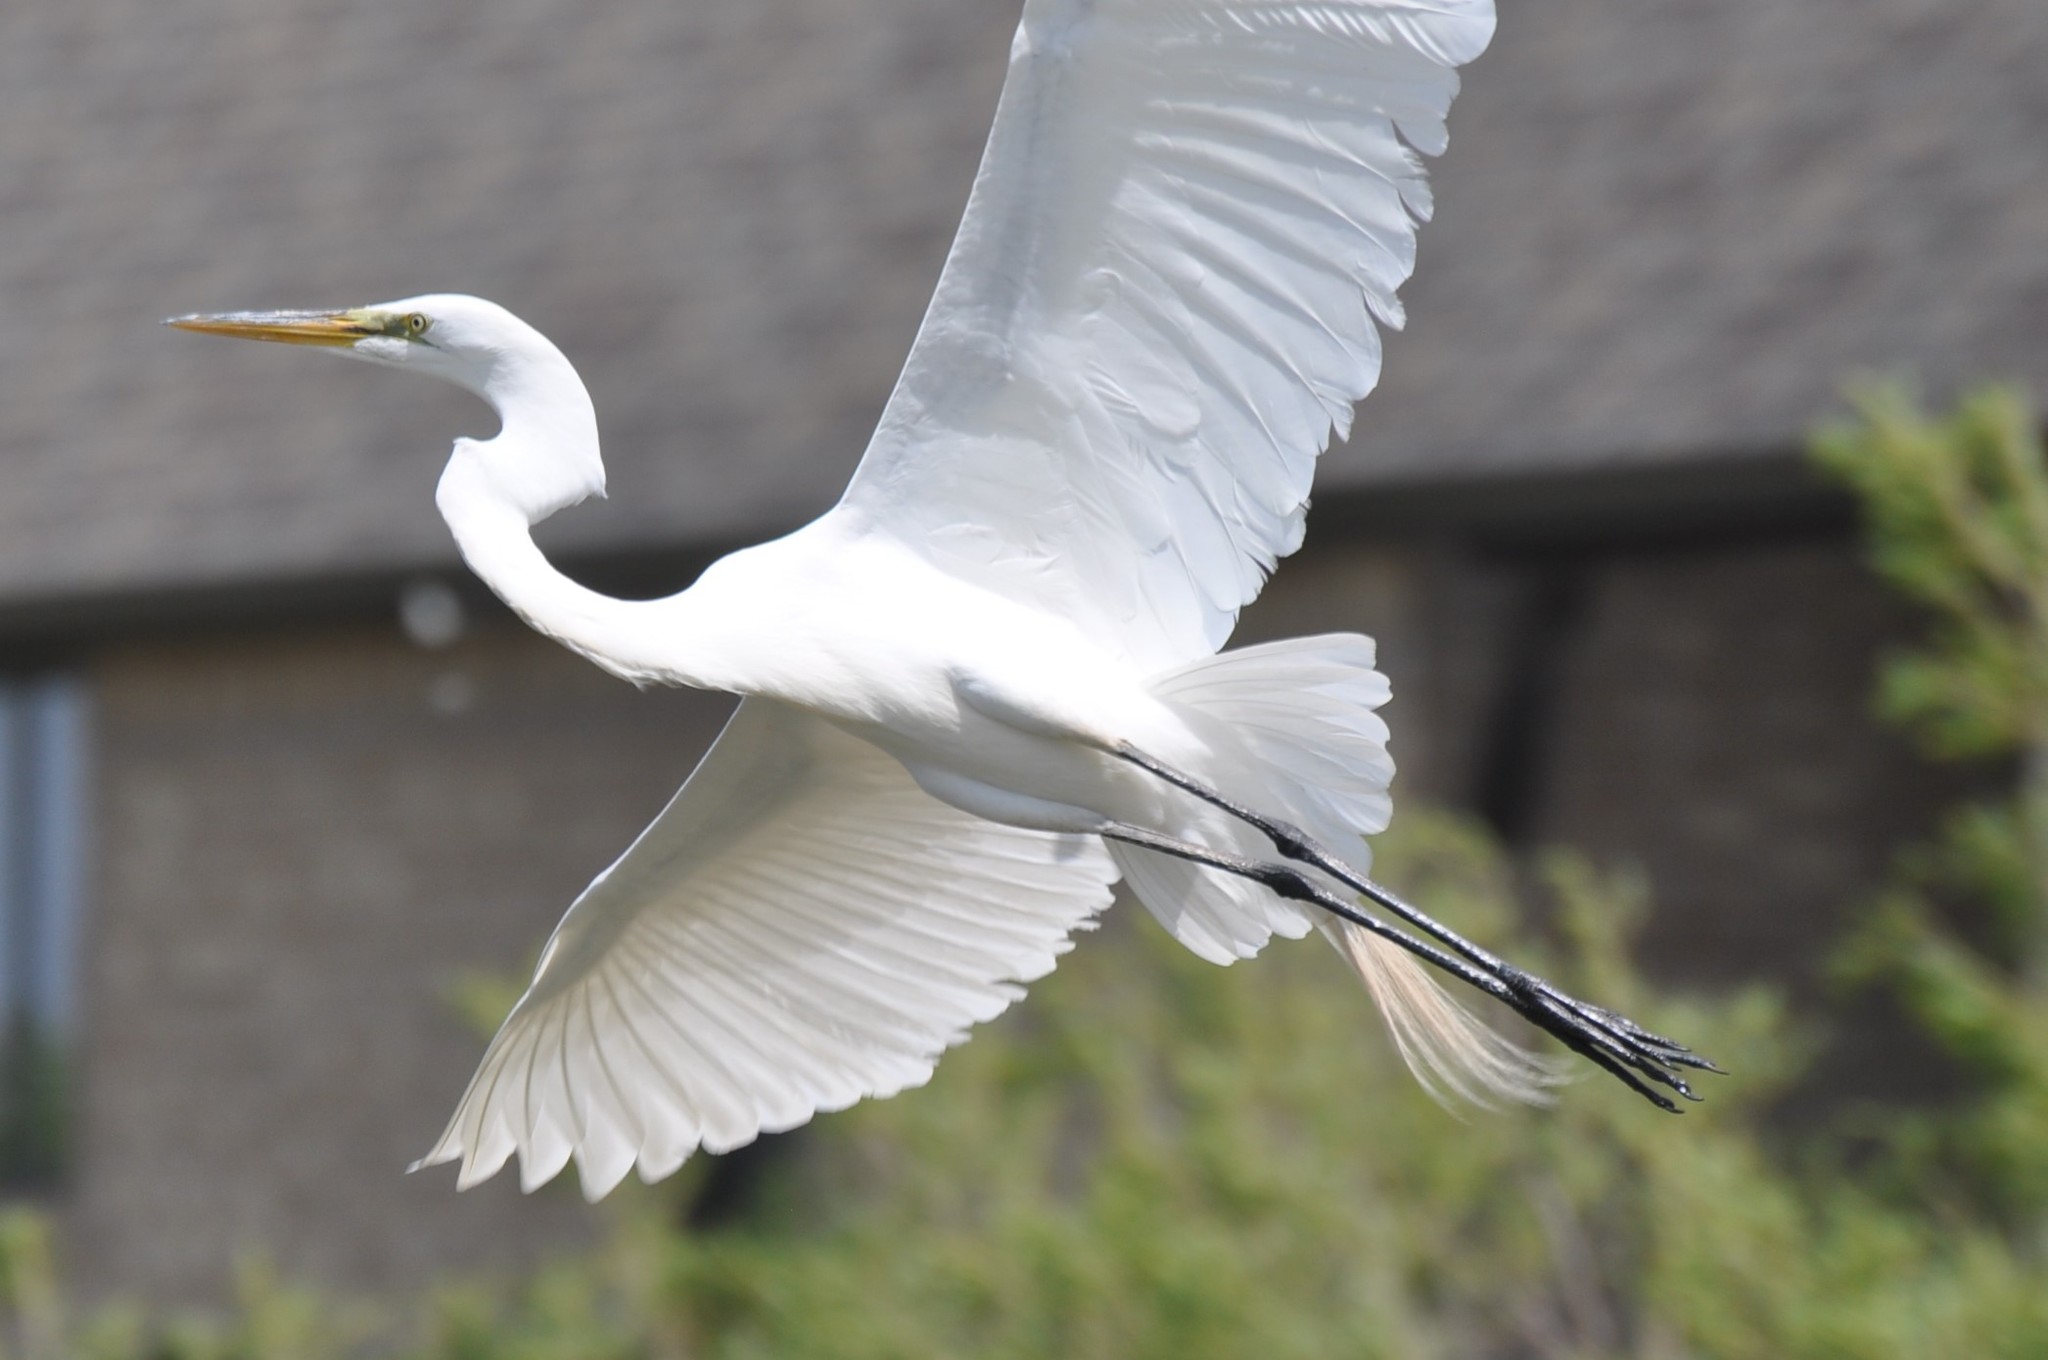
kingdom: Animalia
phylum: Chordata
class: Aves
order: Pelecaniformes
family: Ardeidae
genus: Ardea
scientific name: Ardea alba
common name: Great egret
